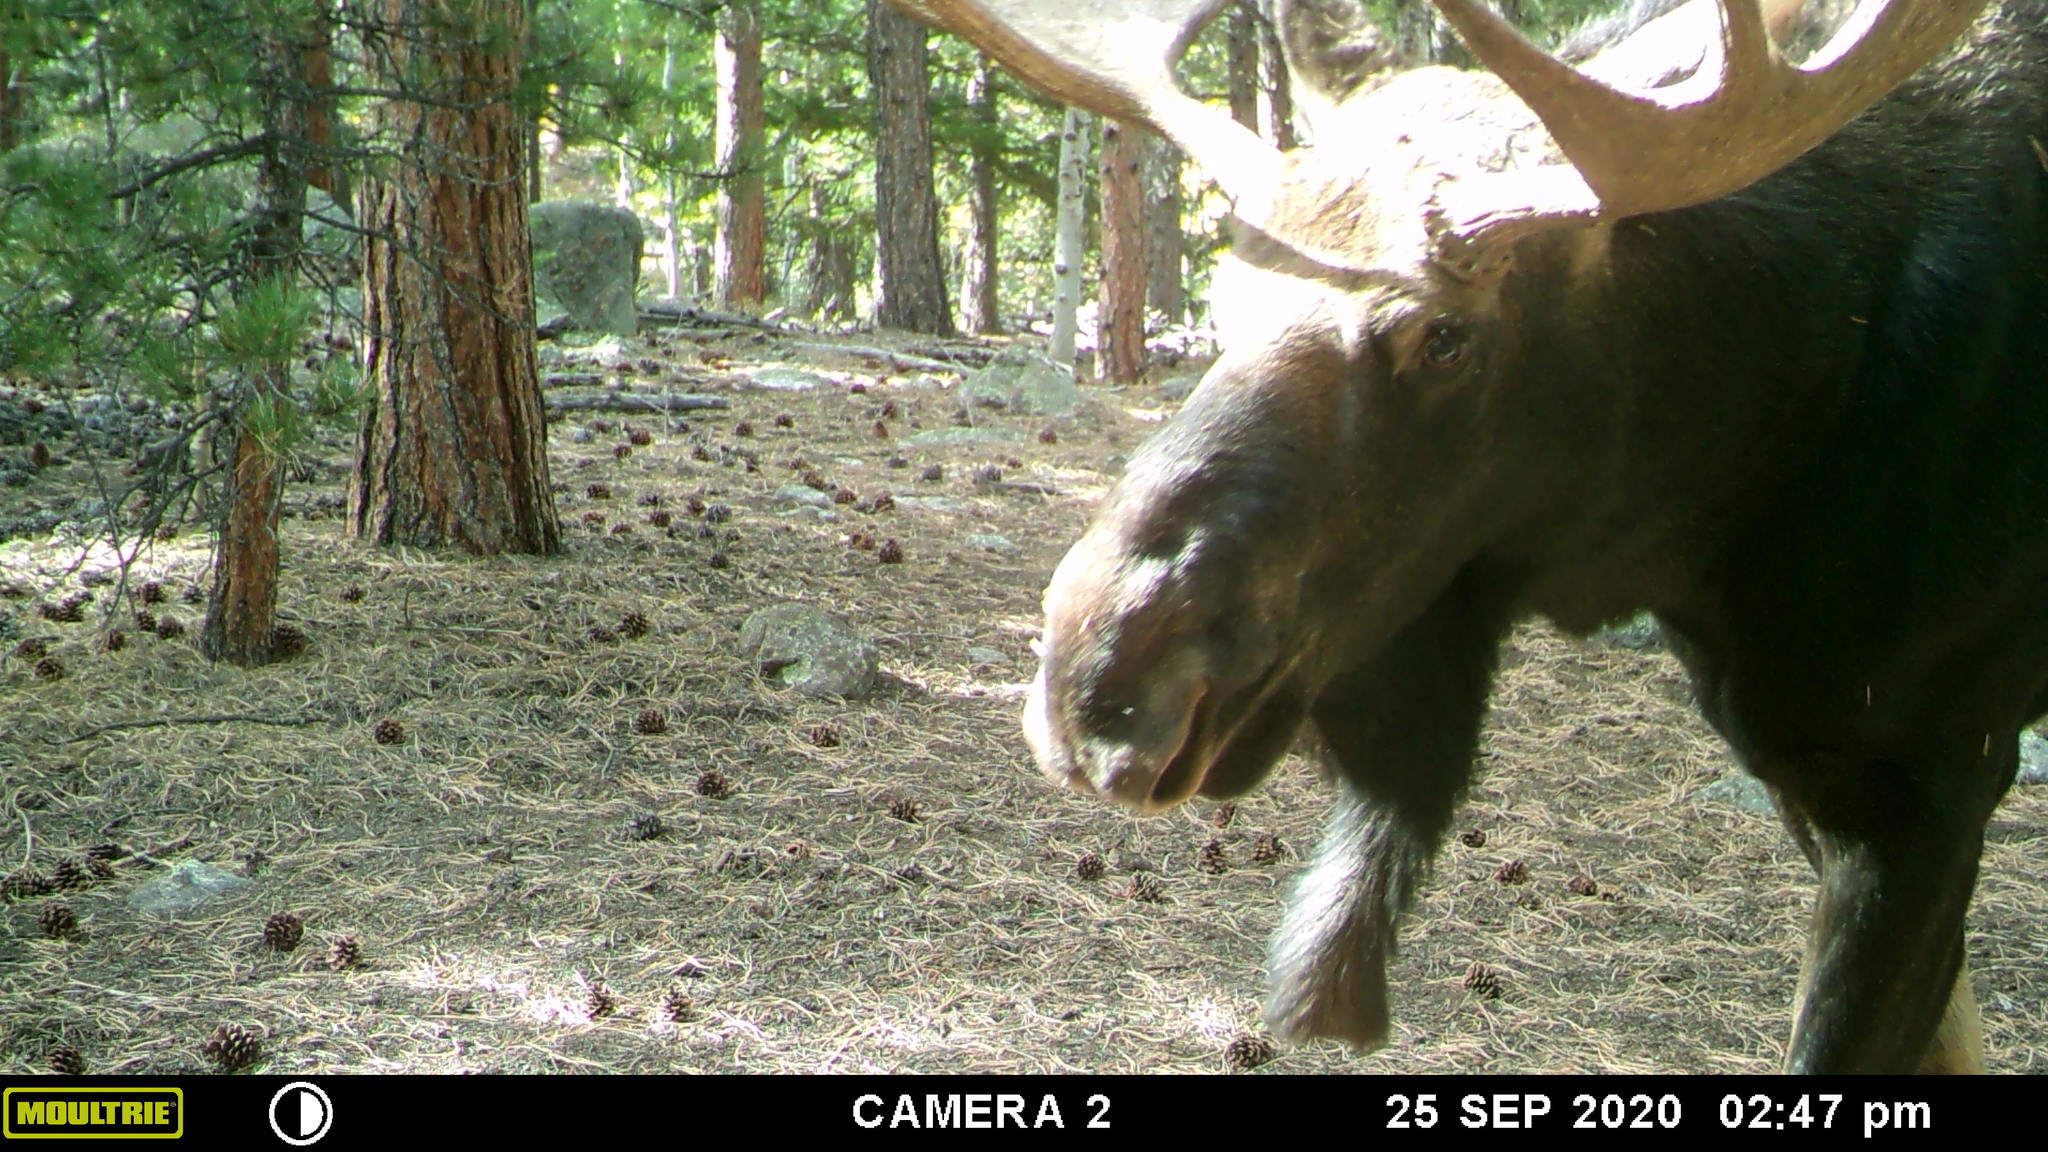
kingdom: Animalia
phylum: Chordata
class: Mammalia
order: Artiodactyla
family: Cervidae
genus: Alces
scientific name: Alces alces
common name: Moose
